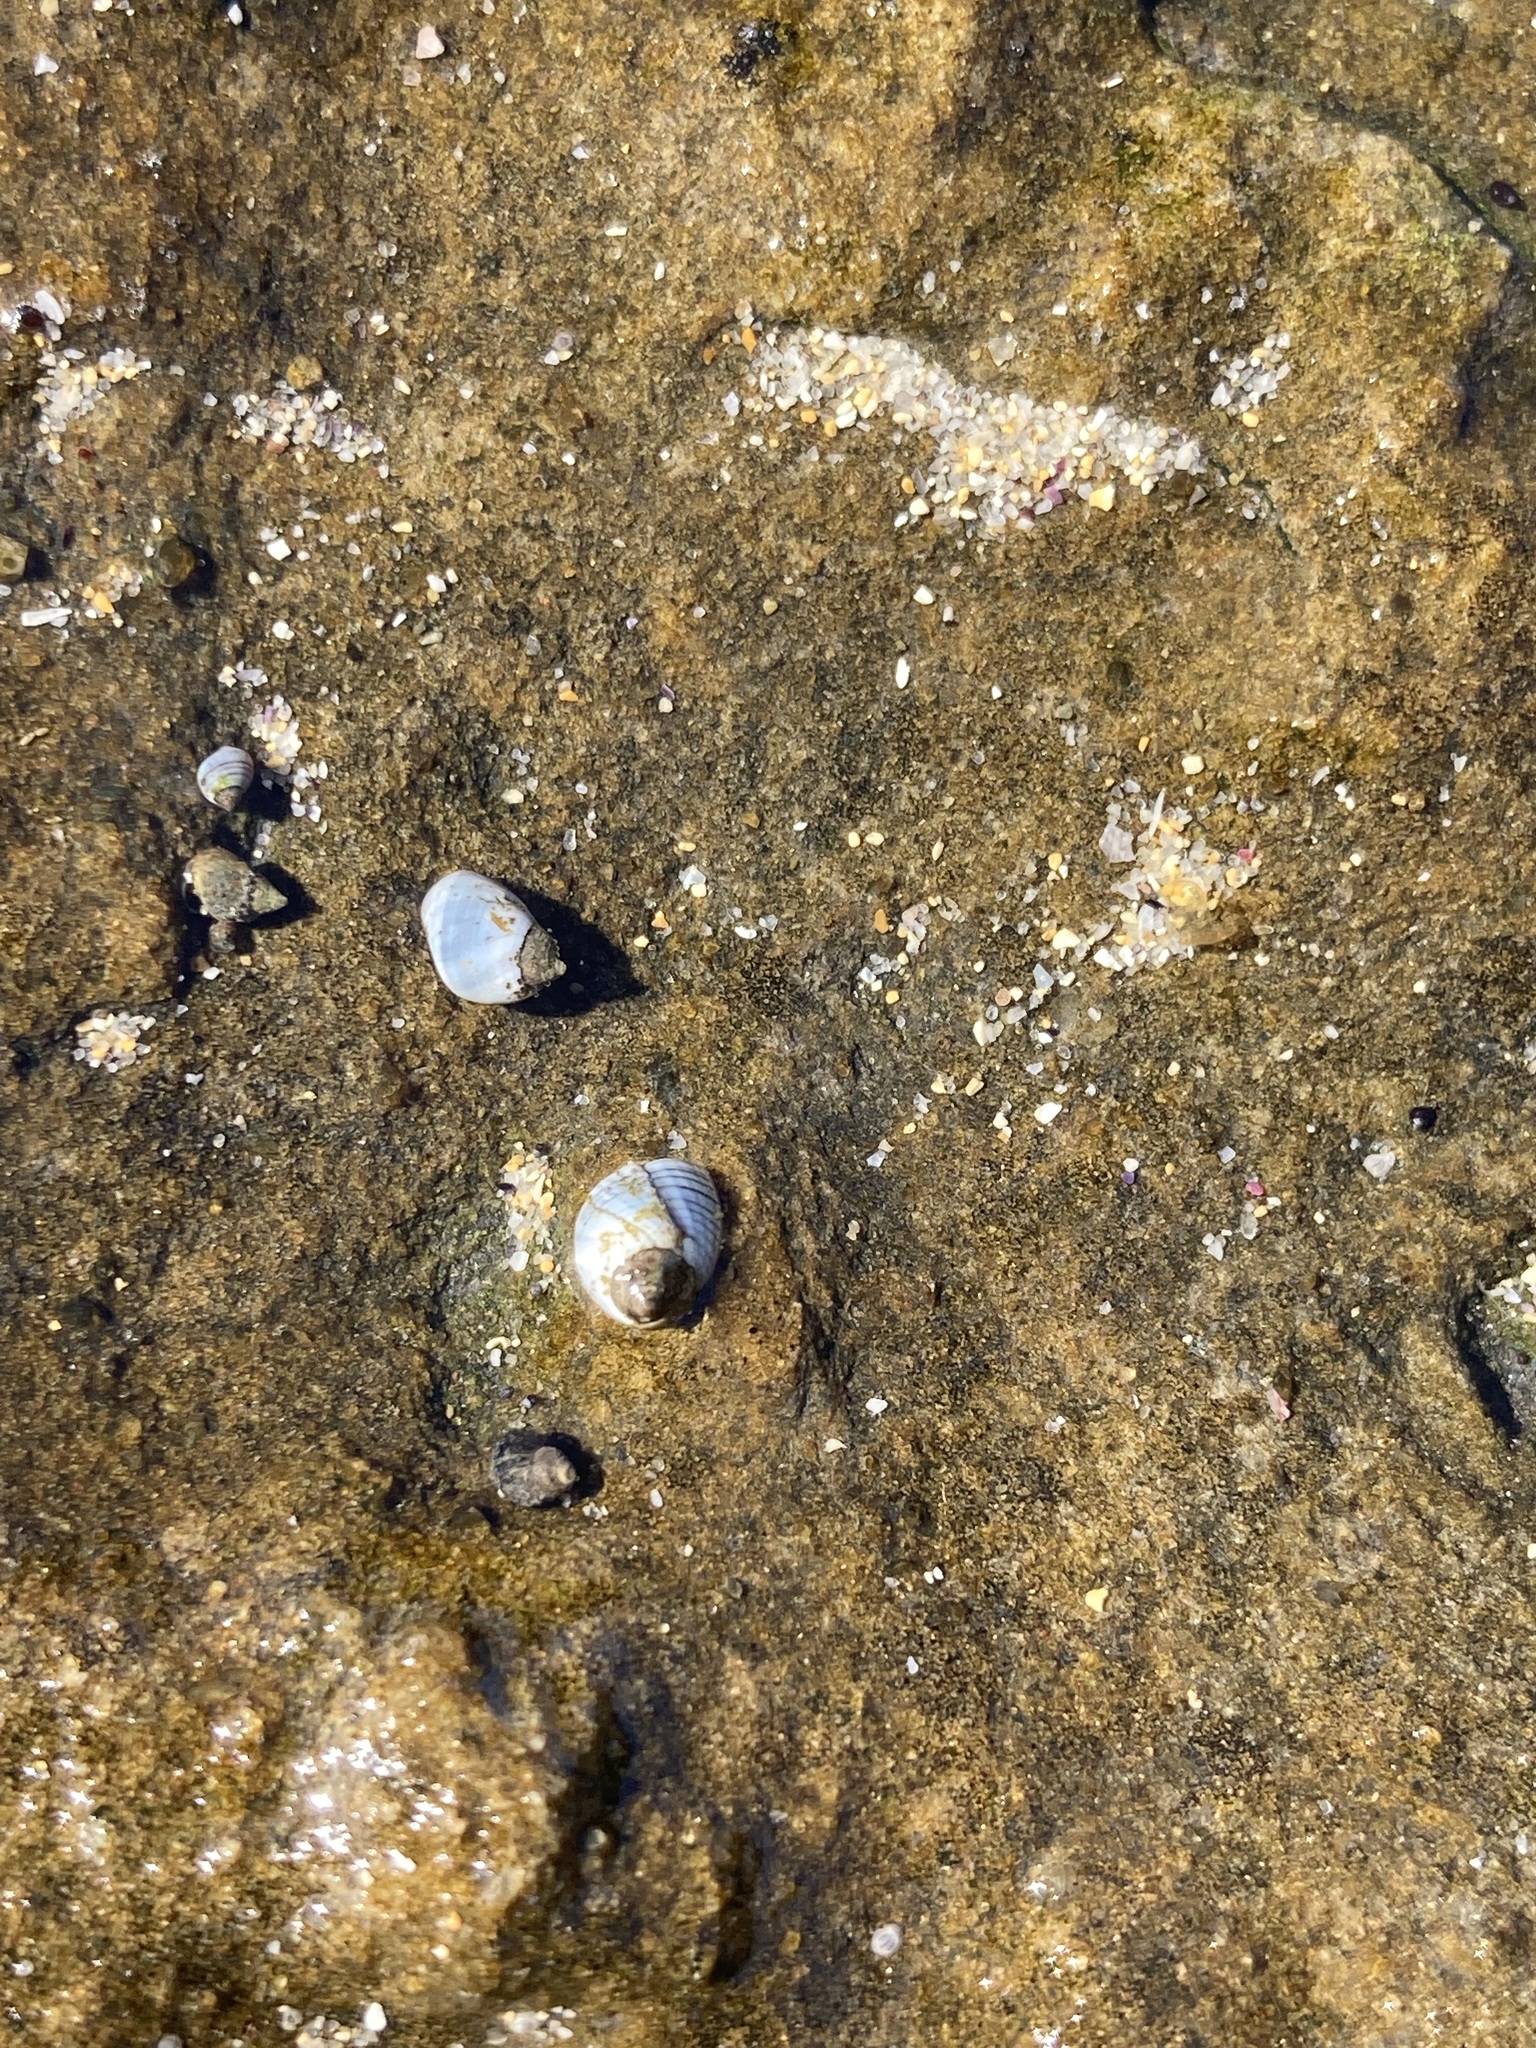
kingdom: Animalia
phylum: Mollusca
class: Gastropoda
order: Littorinimorpha
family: Littorinidae
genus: Austrolittorina
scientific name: Austrolittorina unifasciata
